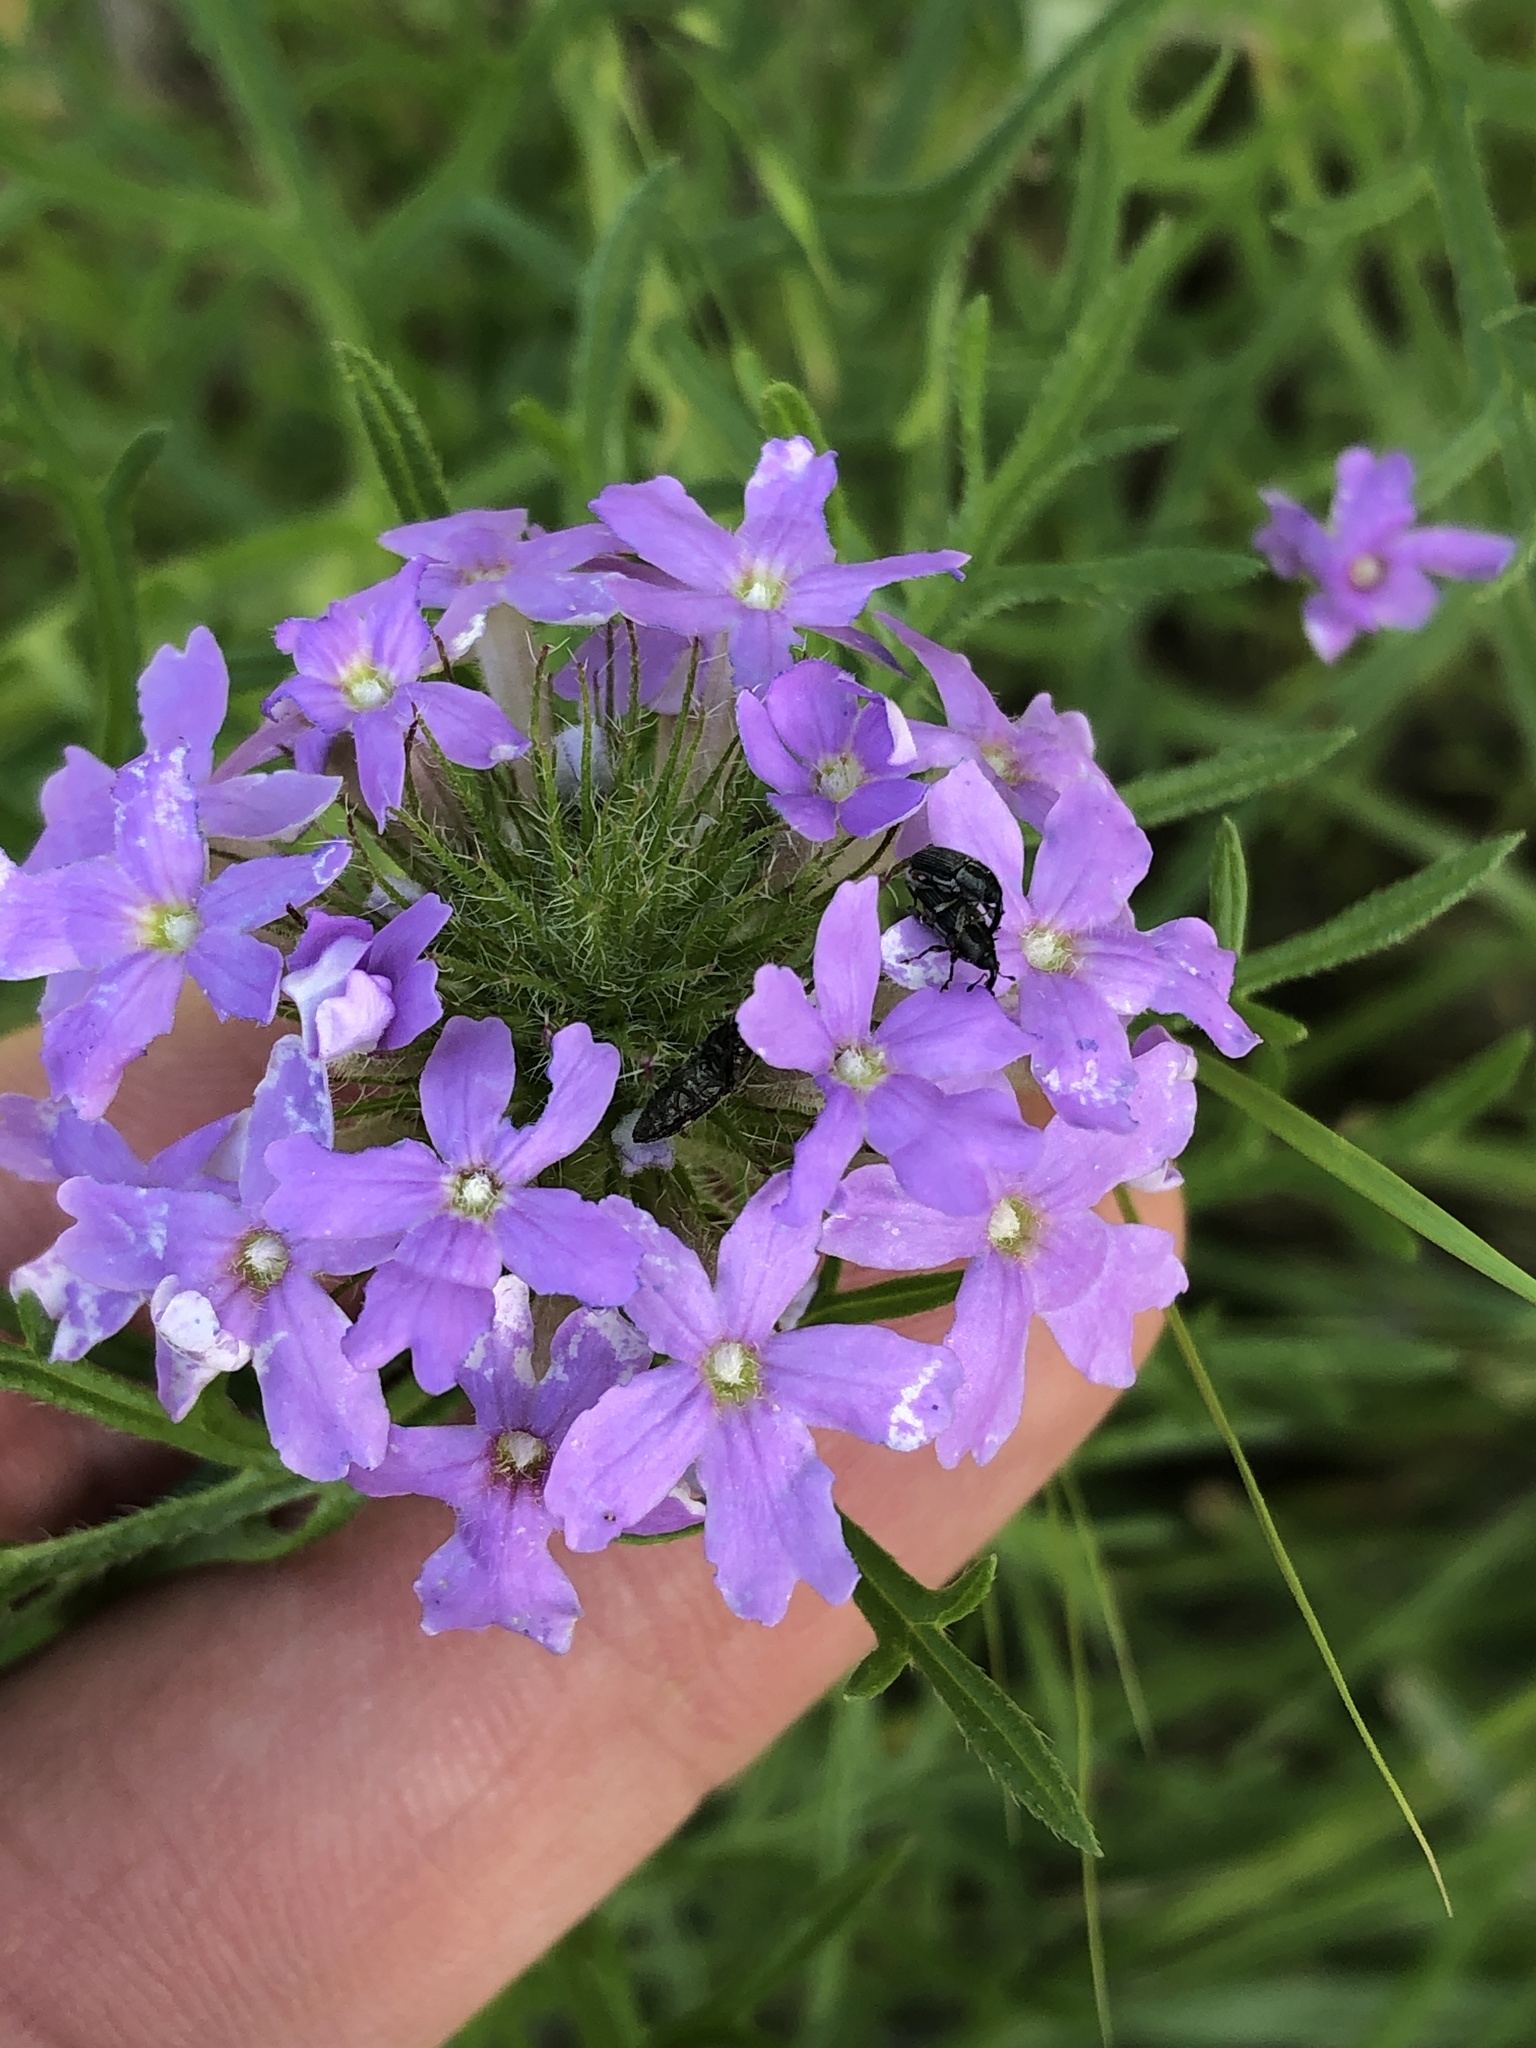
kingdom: Plantae
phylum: Tracheophyta
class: Magnoliopsida
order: Lamiales
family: Verbenaceae
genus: Verbena
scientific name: Verbena bipinnatifida
